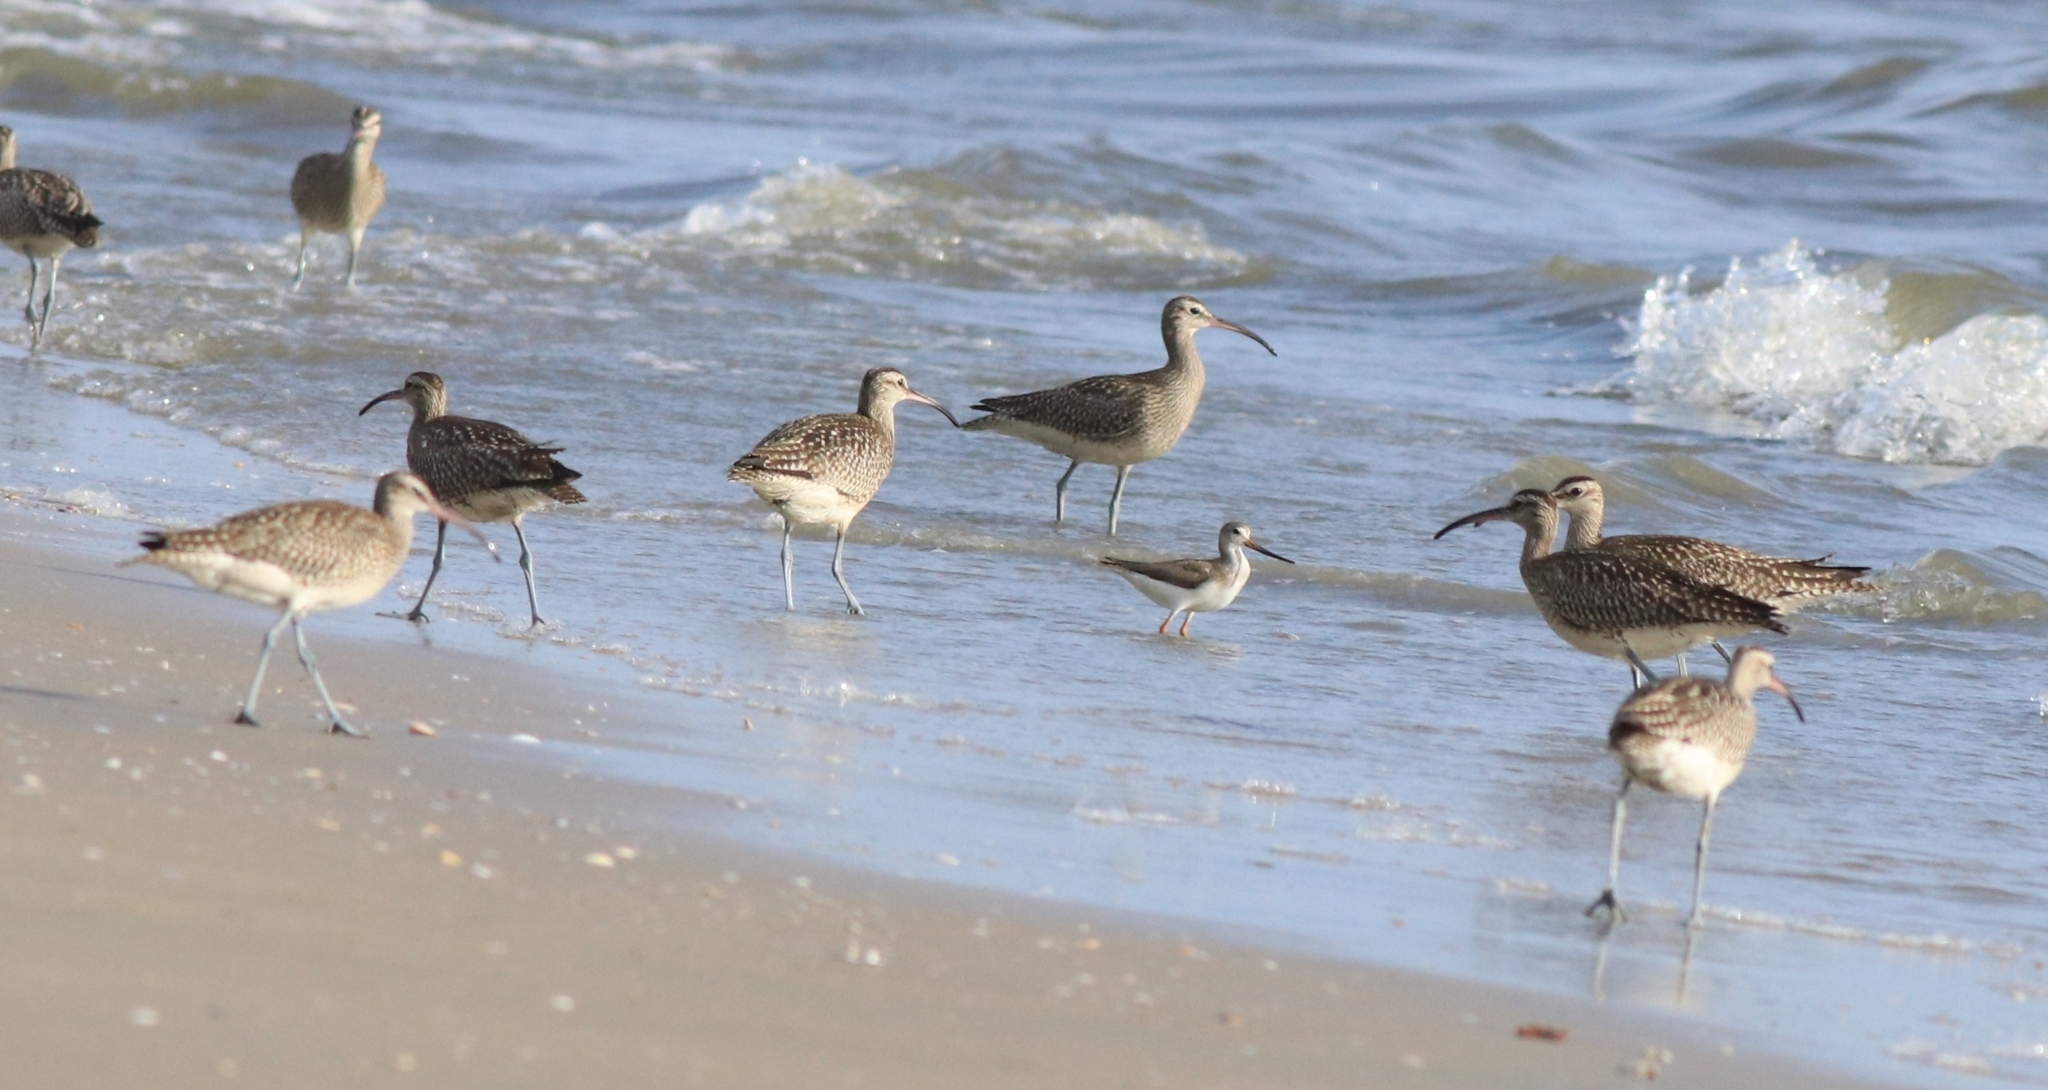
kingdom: Animalia
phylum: Chordata
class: Aves
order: Charadriiformes
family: Scolopacidae
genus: Numenius
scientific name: Numenius phaeopus
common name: Whimbrel
